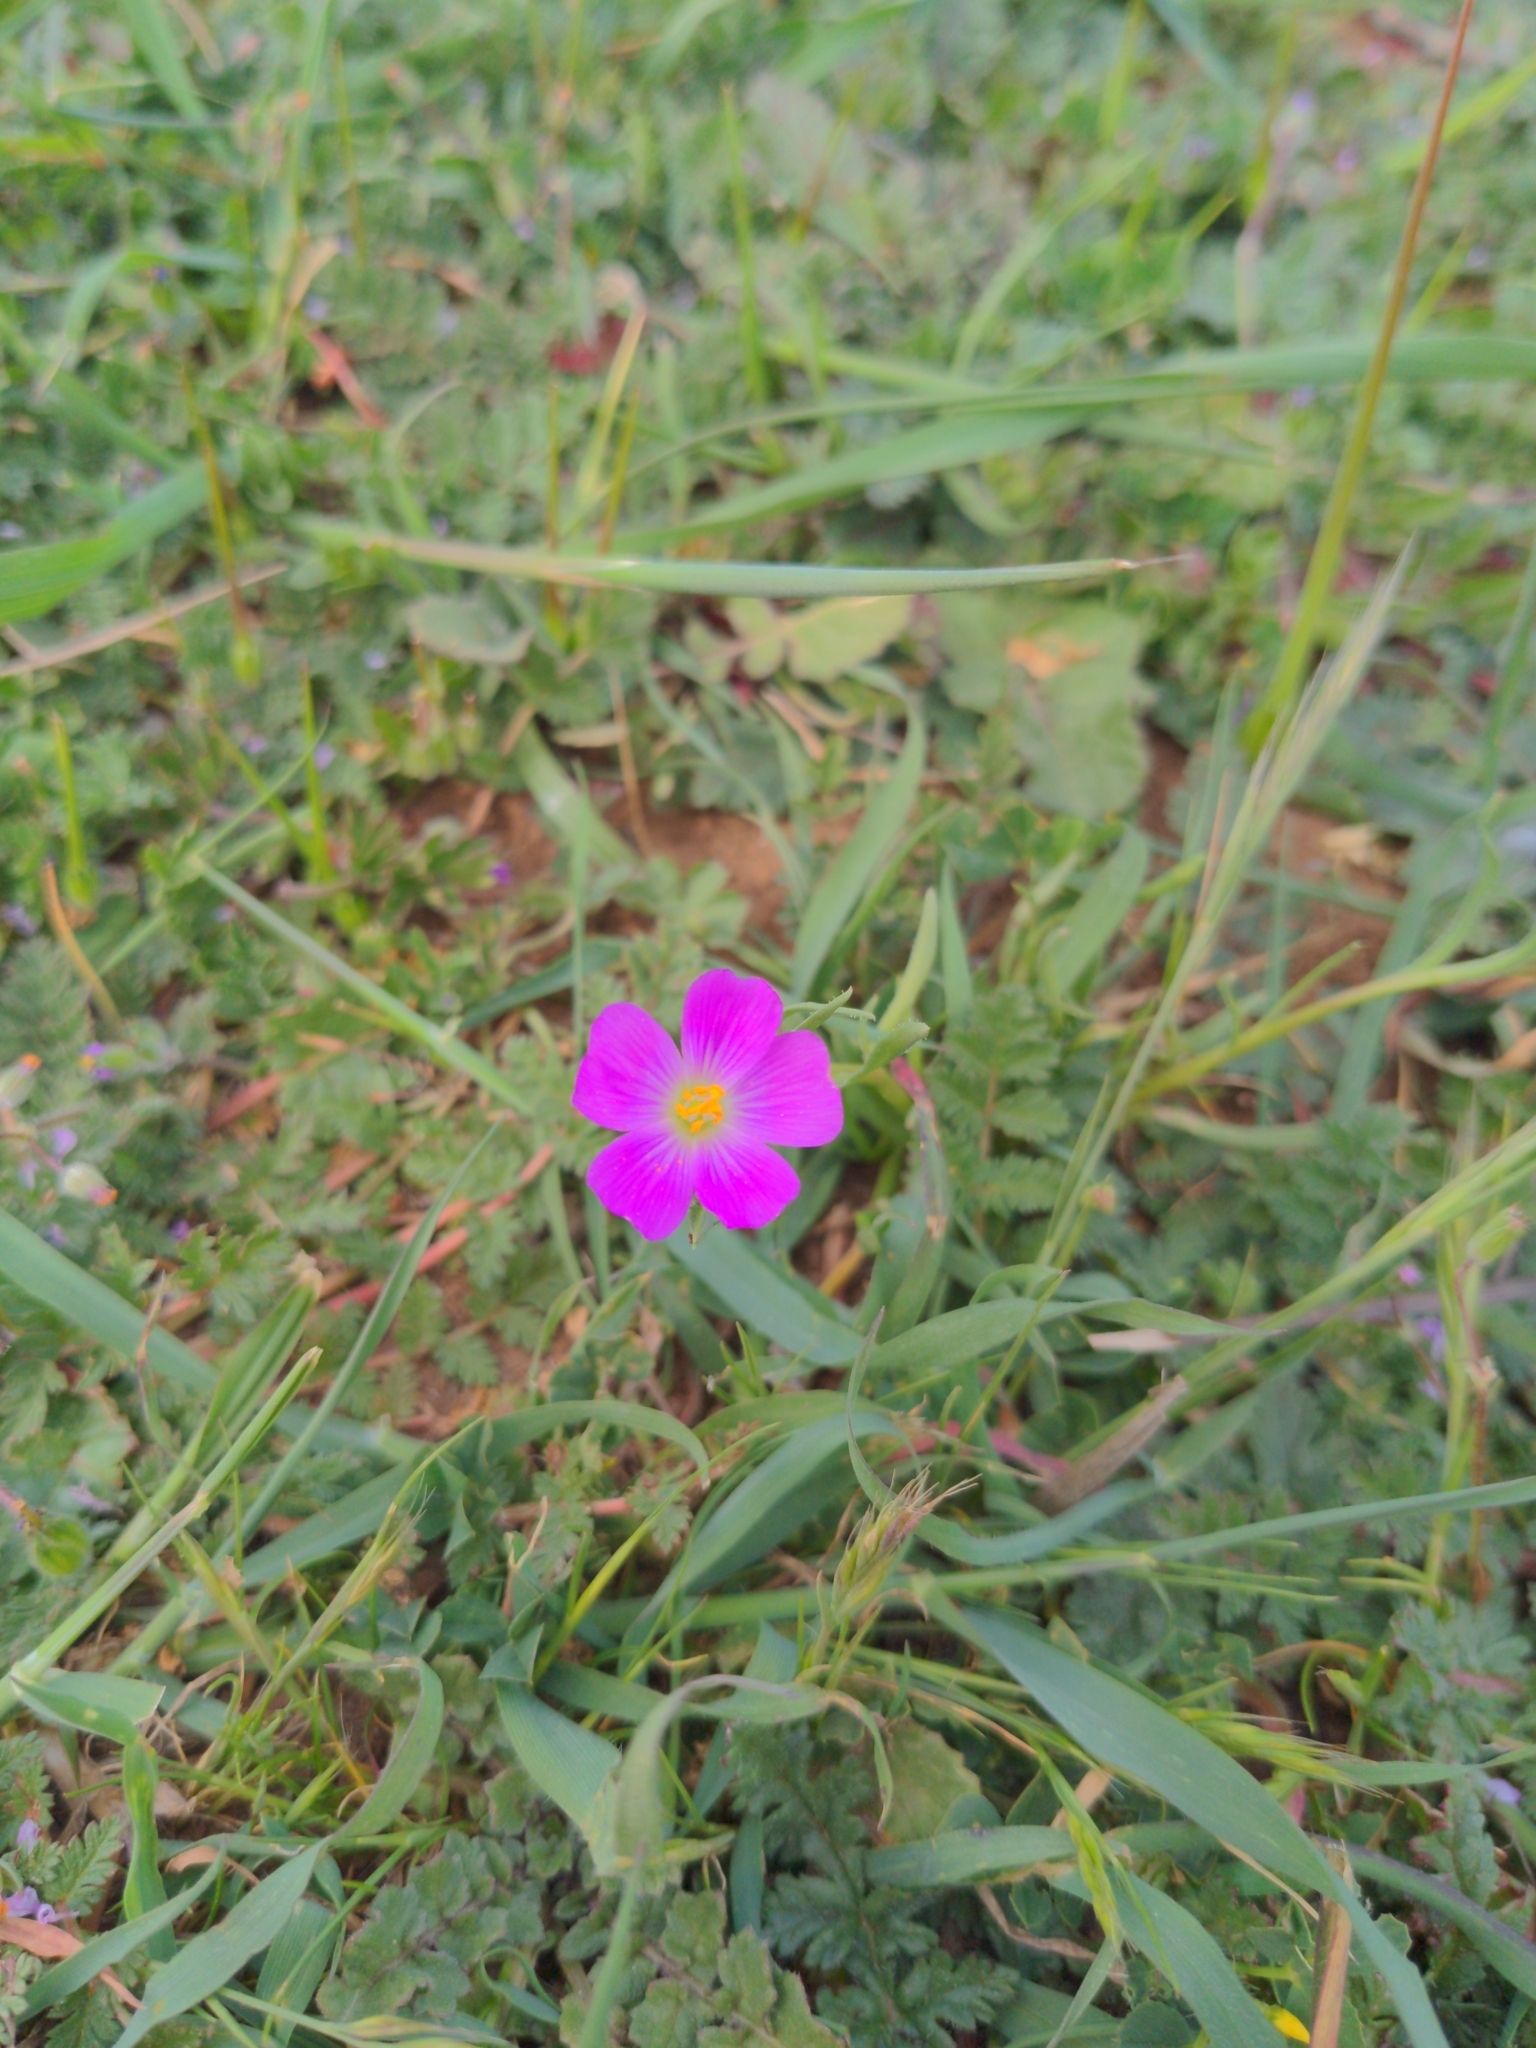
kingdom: Plantae
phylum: Tracheophyta
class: Magnoliopsida
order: Caryophyllales
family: Montiaceae
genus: Calandrinia
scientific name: Calandrinia menziesii
